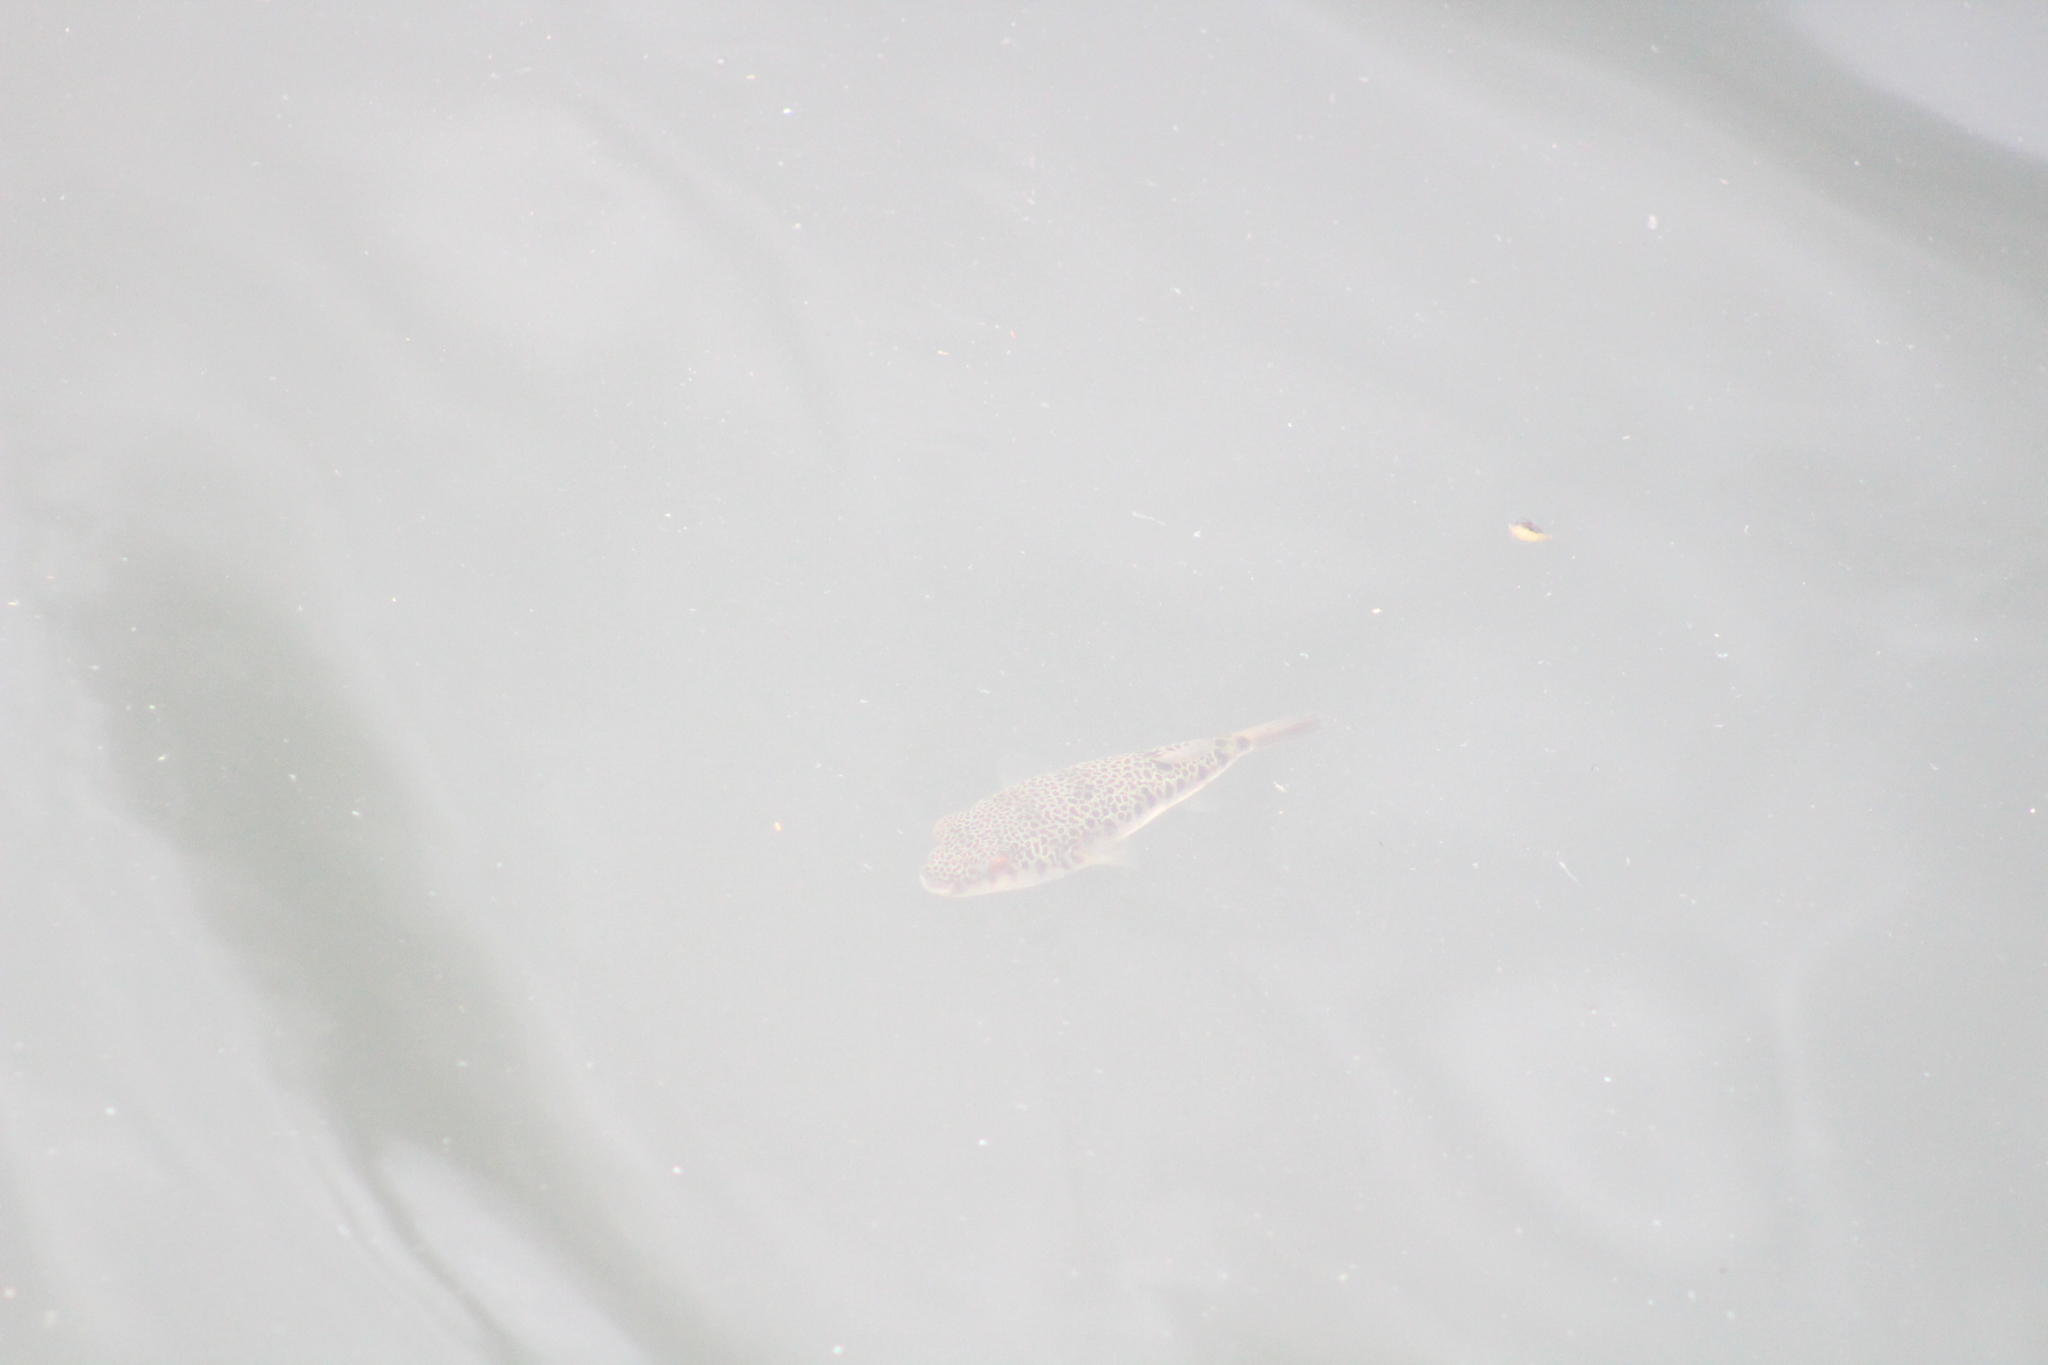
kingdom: Animalia
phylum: Chordata
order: Tetraodontiformes
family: Tetraodontidae
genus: Tetractenos
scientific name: Tetractenos hamiltoni
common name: Common toadfish
